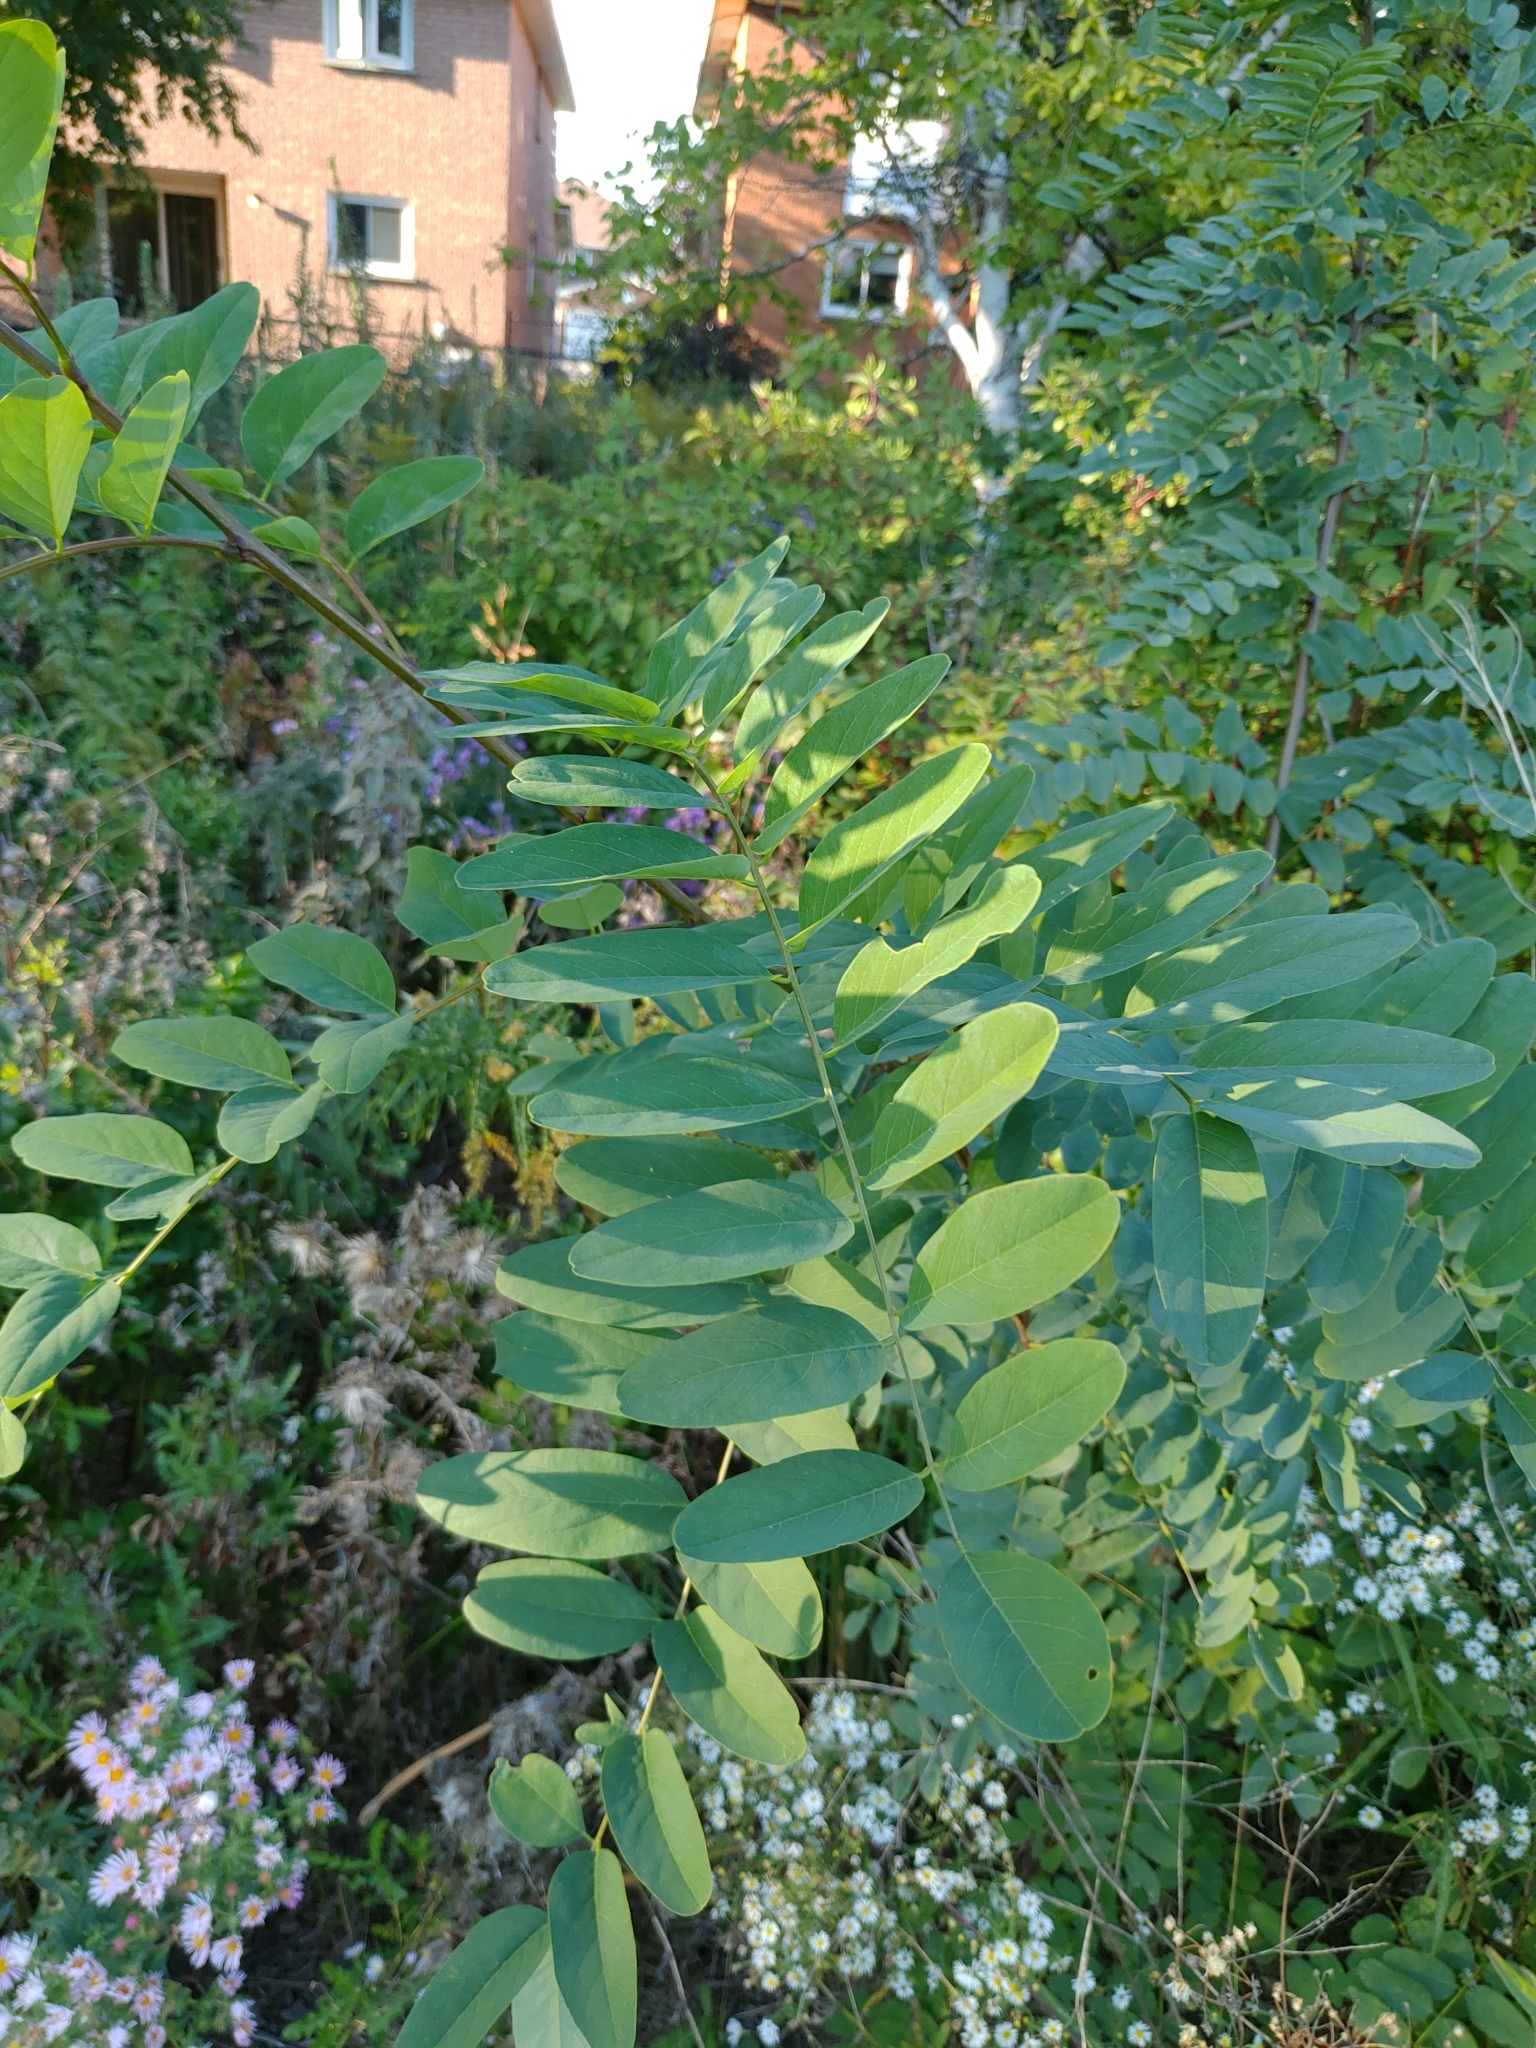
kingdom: Plantae
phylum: Tracheophyta
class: Magnoliopsida
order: Fabales
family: Fabaceae
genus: Robinia
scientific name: Robinia pseudoacacia
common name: Black locust
